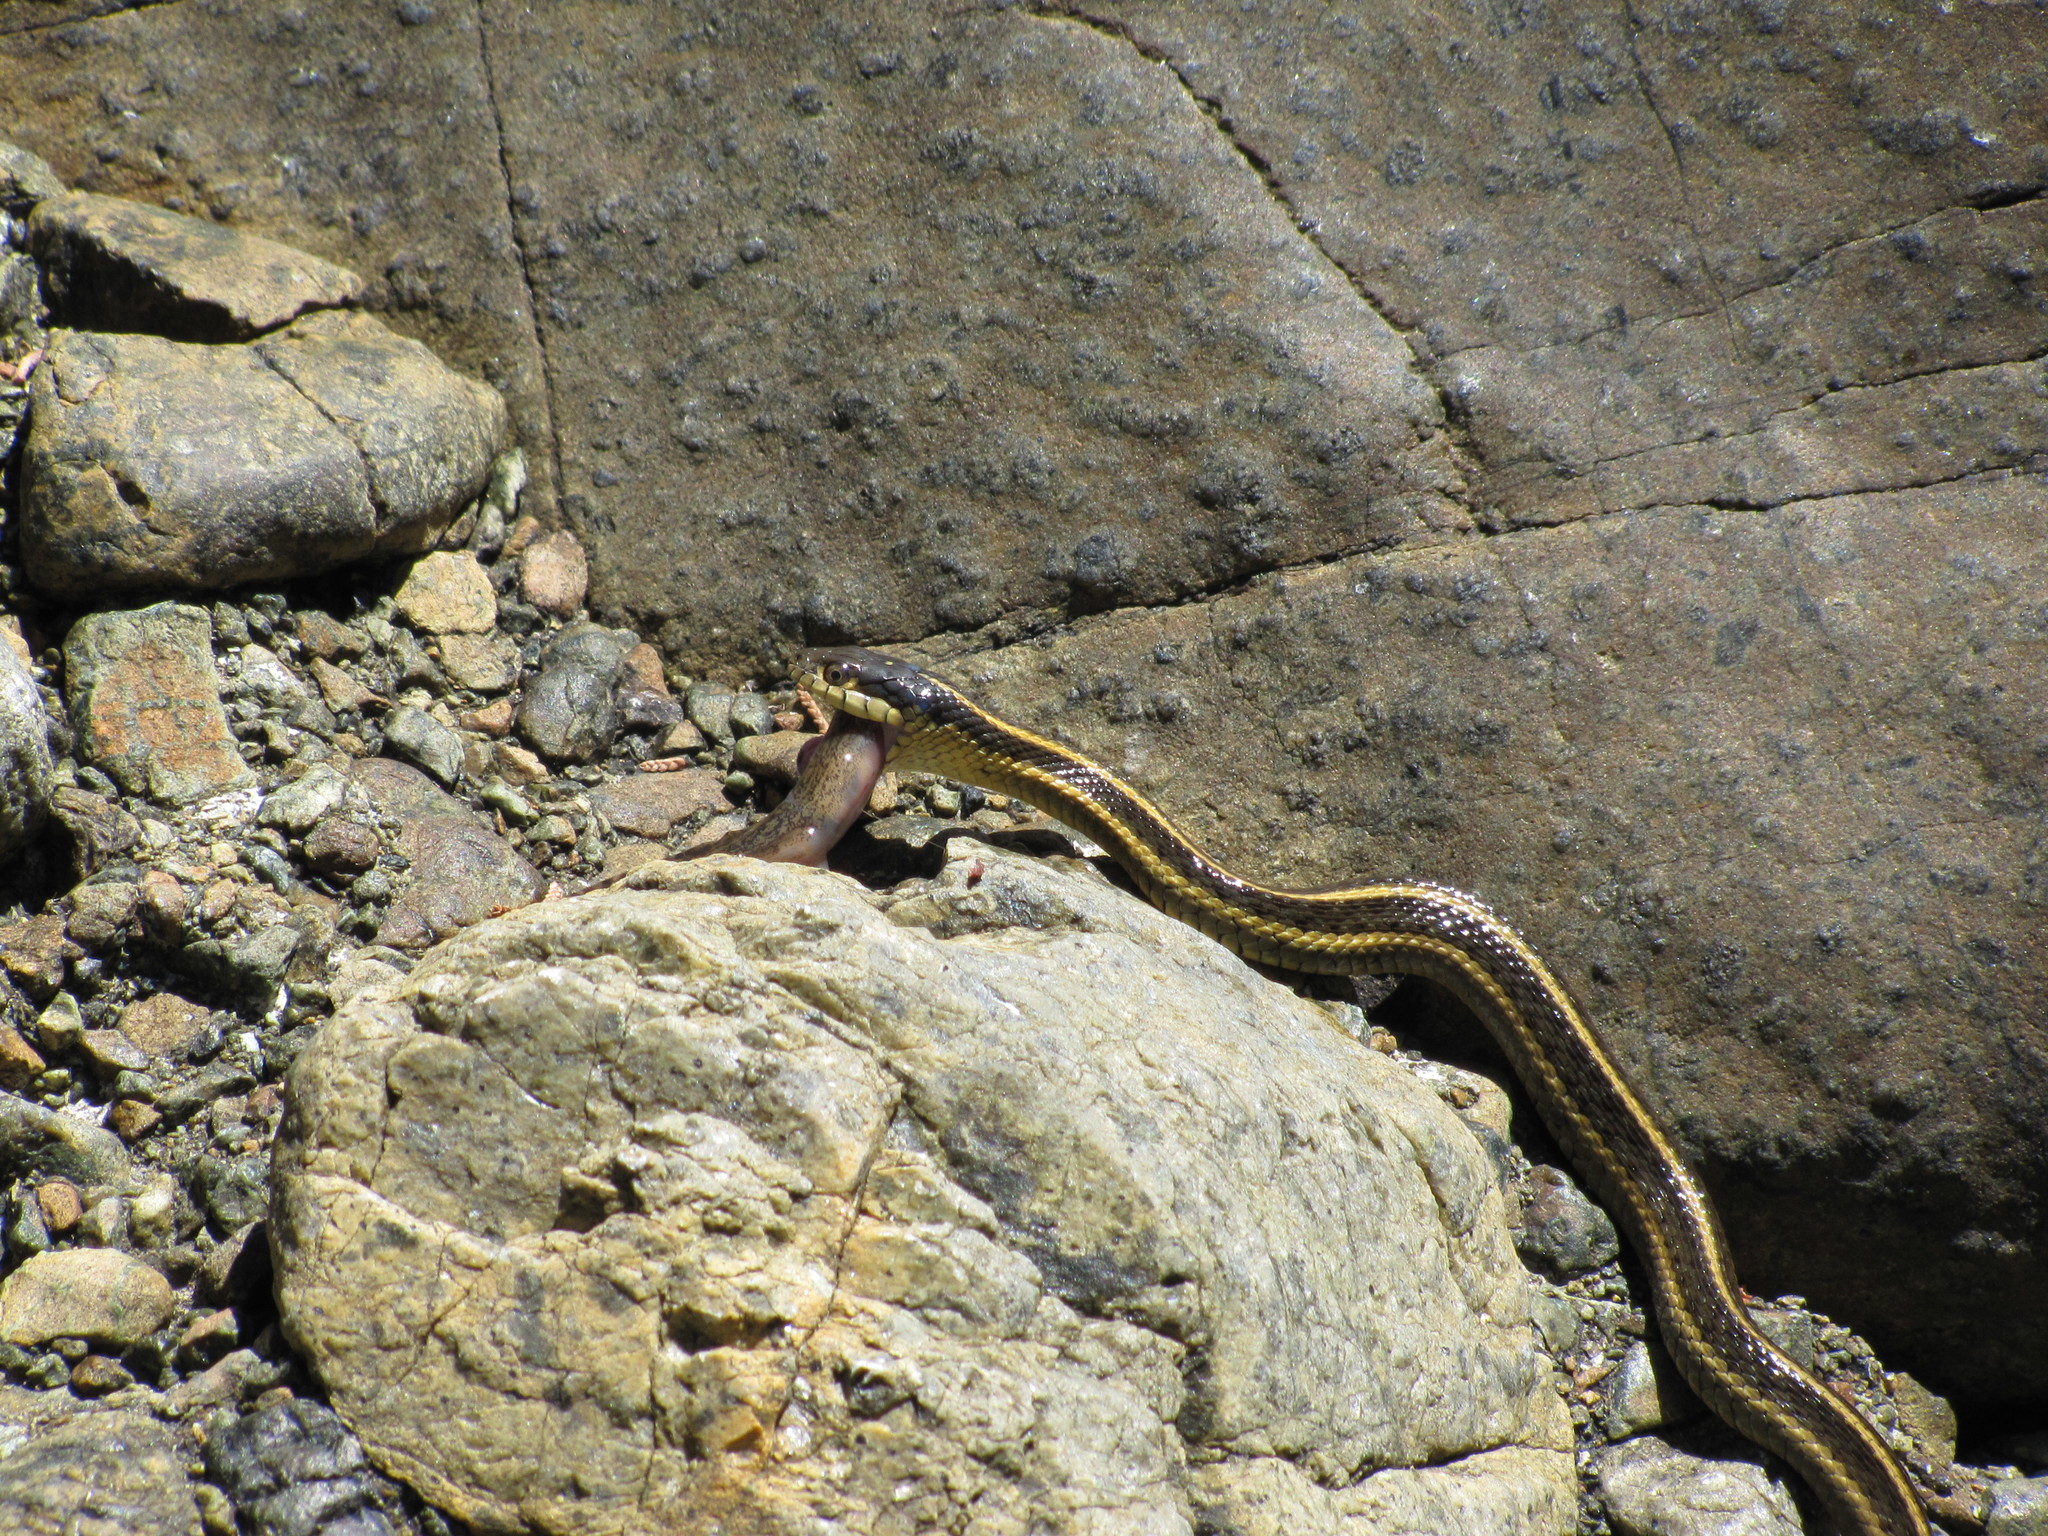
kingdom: Animalia
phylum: Chordata
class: Squamata
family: Colubridae
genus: Thamnophis
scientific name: Thamnophis atratus
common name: Pacific coast aquatic garter snake
